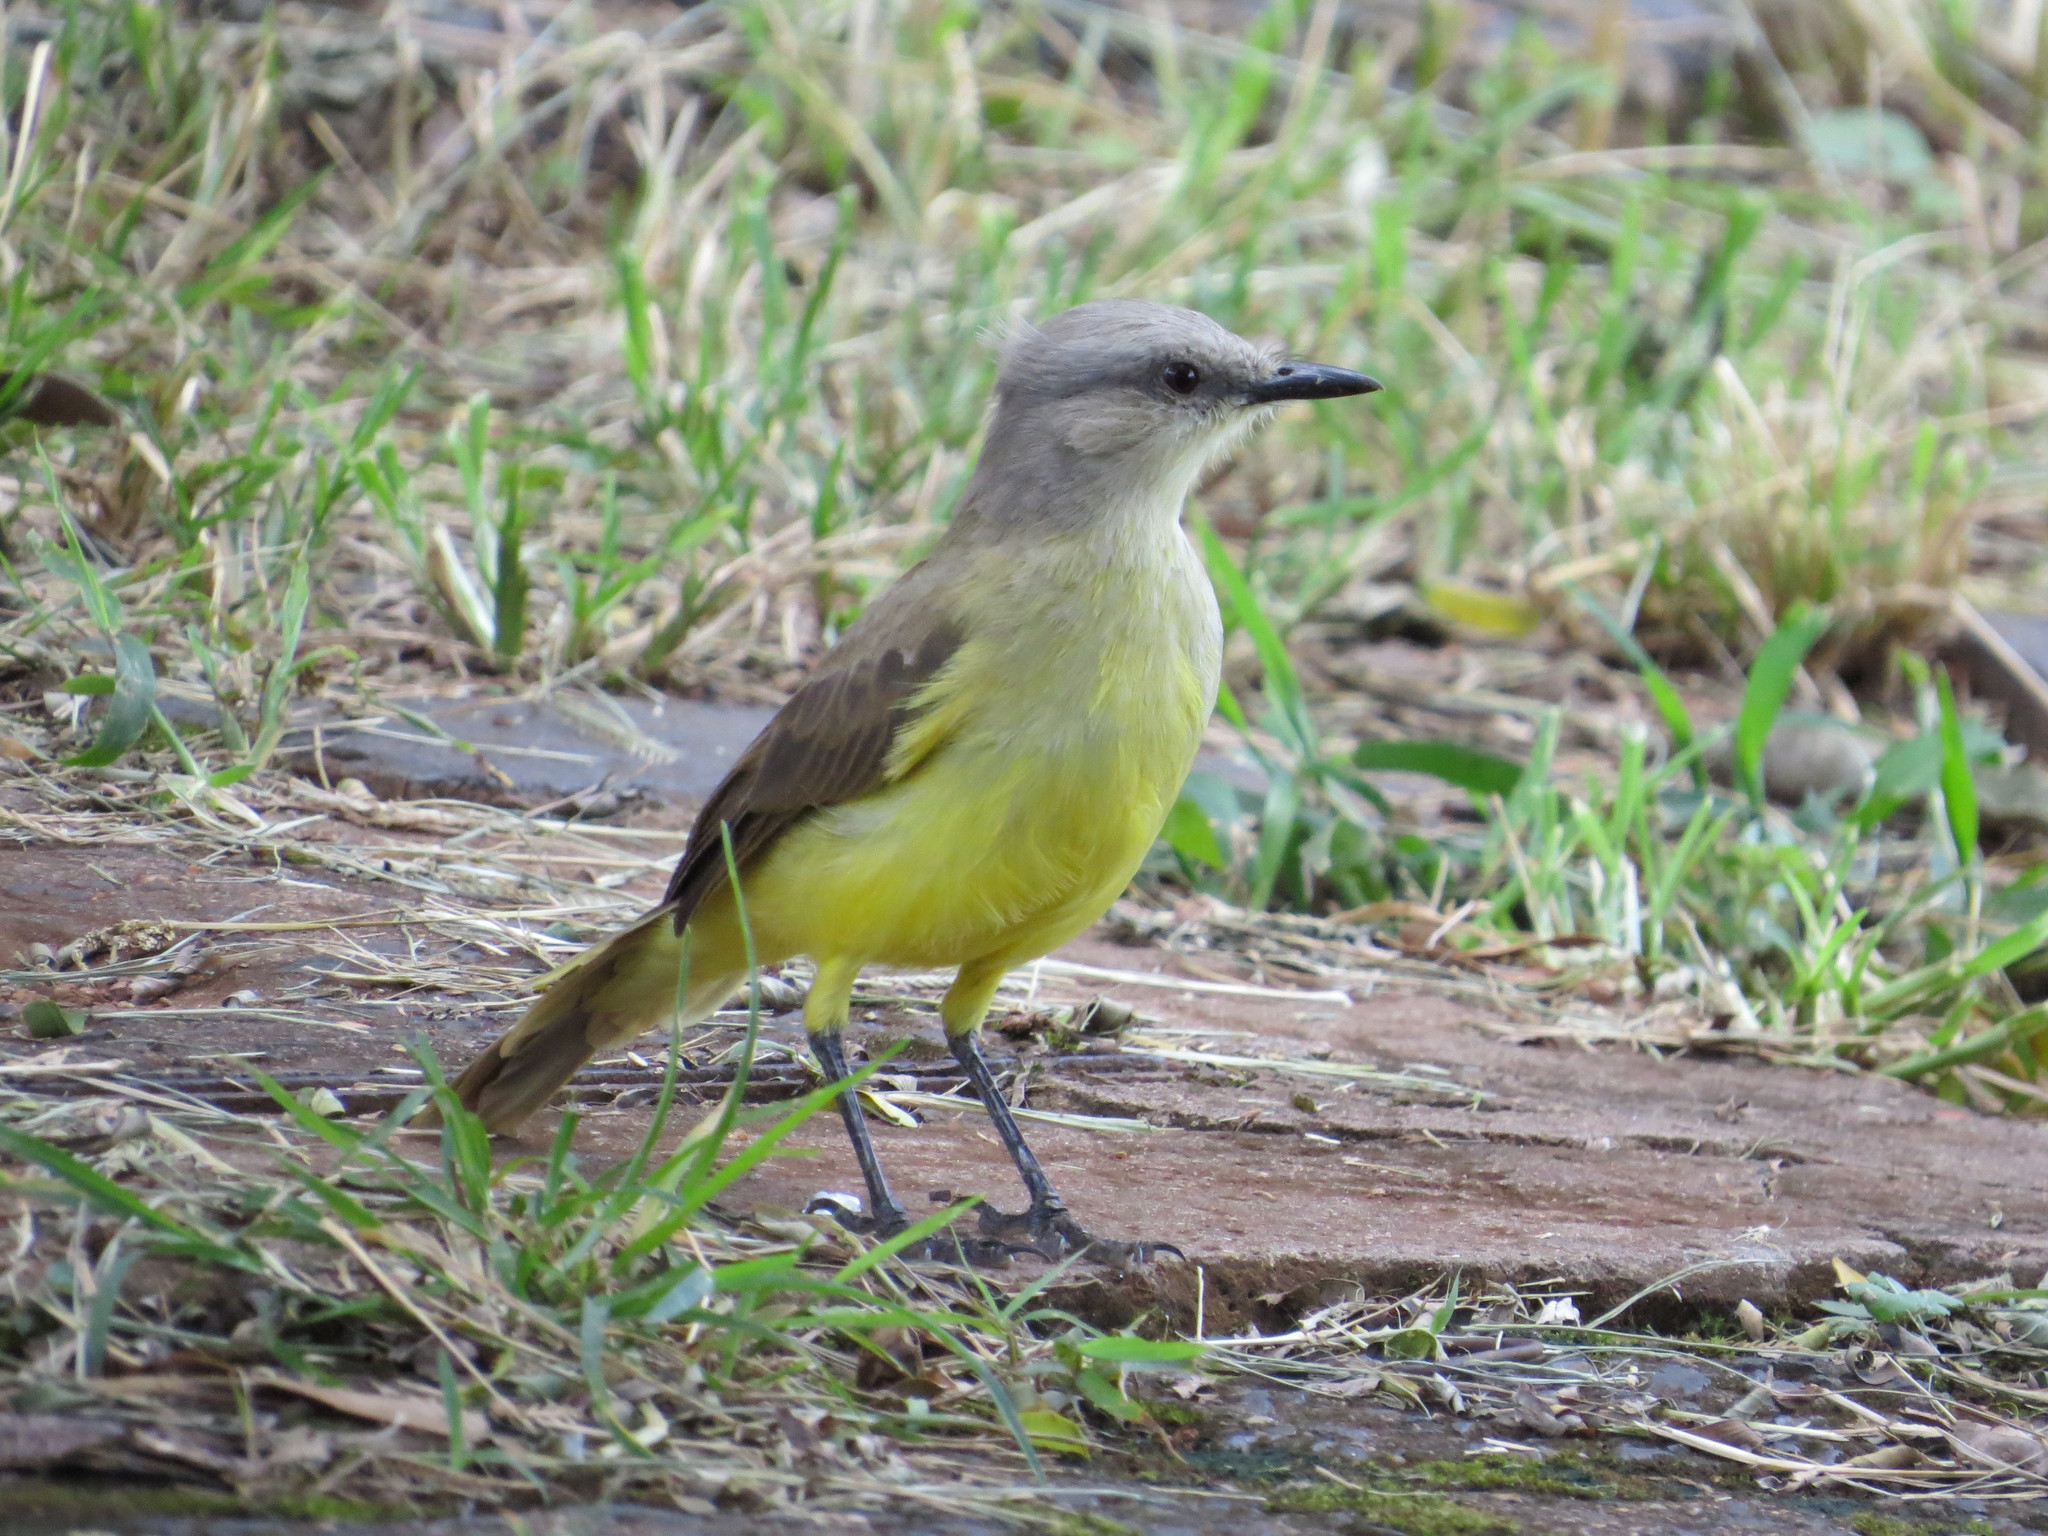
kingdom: Animalia
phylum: Chordata
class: Aves
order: Passeriformes
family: Tyrannidae
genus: Machetornis
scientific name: Machetornis rixosa
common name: Cattle tyrant
